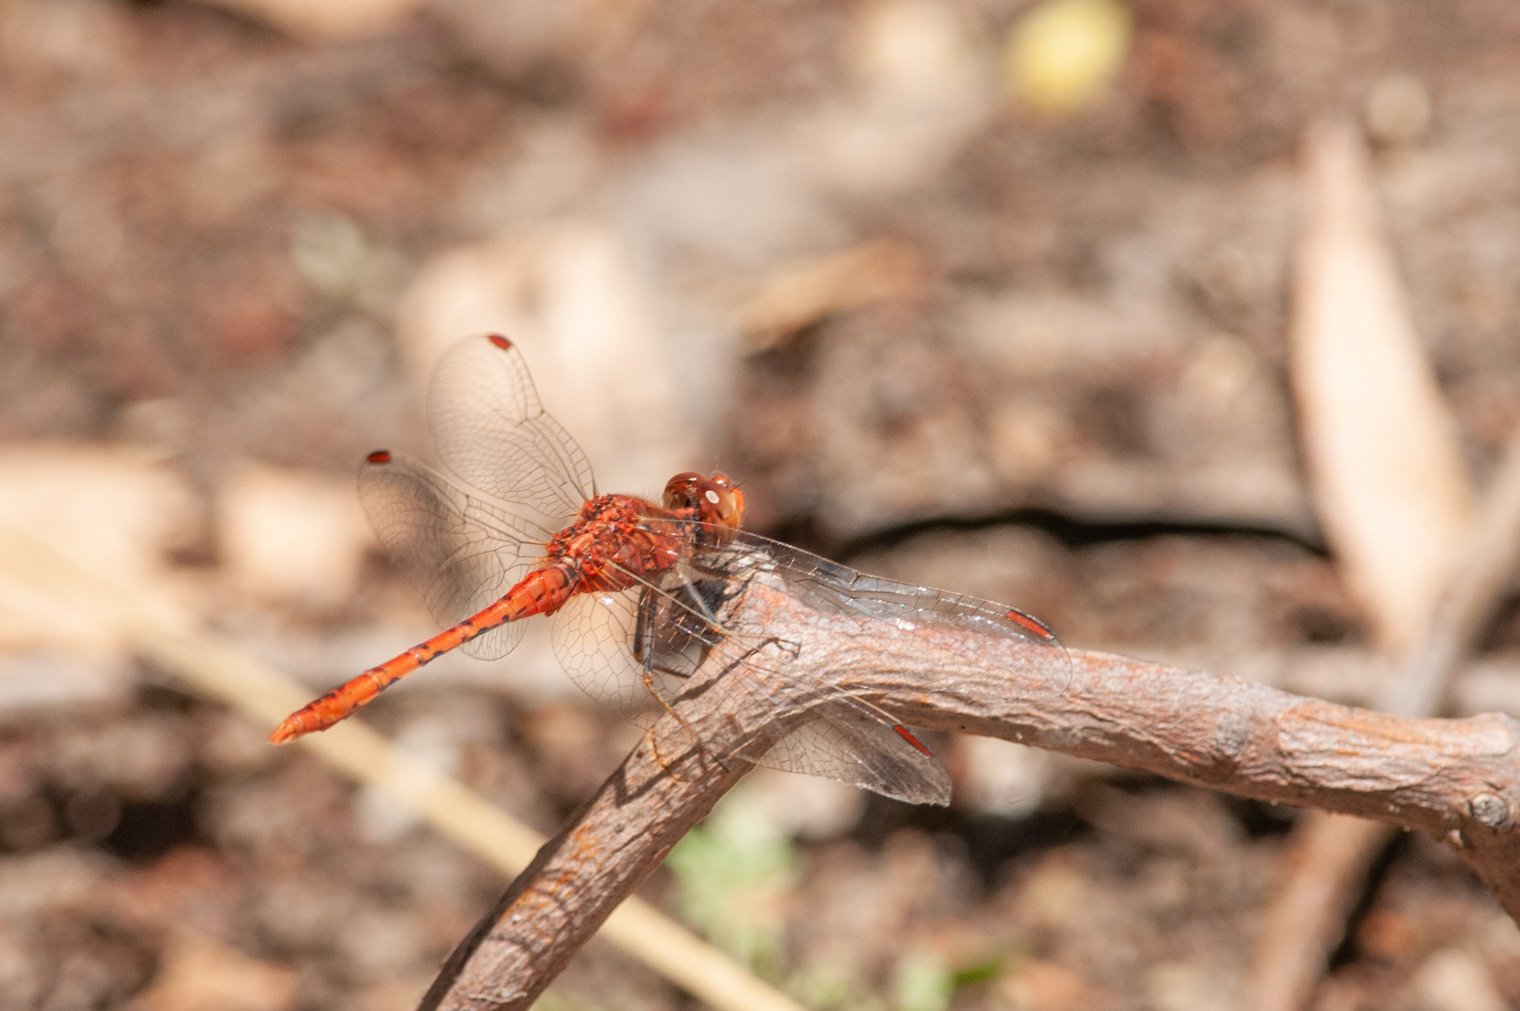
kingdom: Animalia
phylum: Arthropoda
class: Insecta
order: Odonata
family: Libellulidae
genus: Diplacodes
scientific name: Diplacodes bipunctata
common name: Red percher dragonfly
